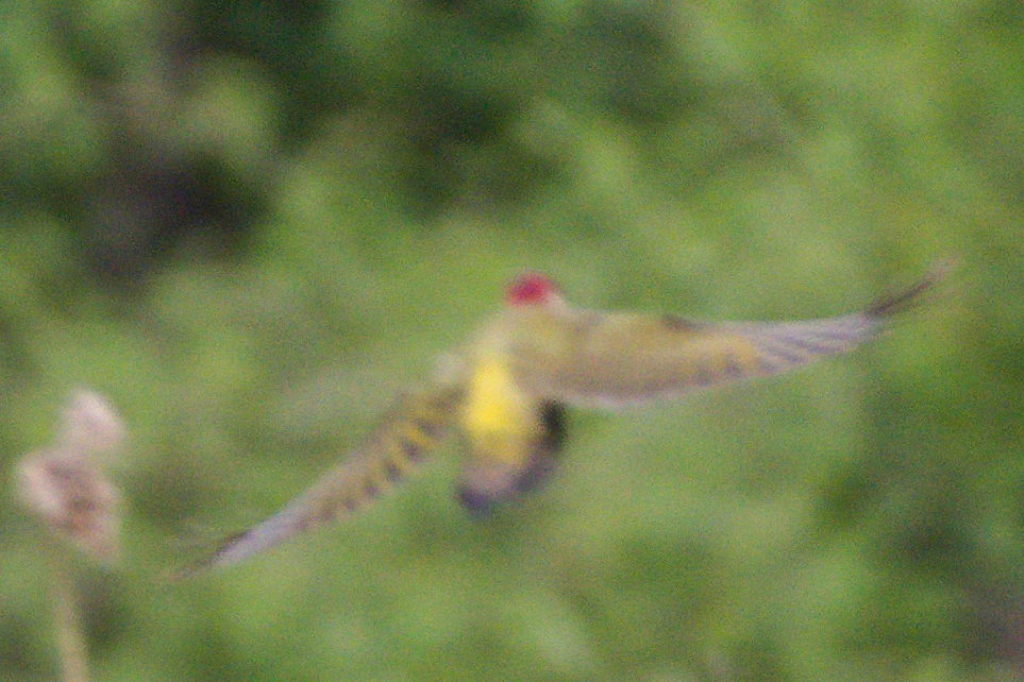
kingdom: Animalia
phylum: Chordata
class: Aves
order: Piciformes
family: Picidae
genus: Picus
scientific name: Picus viridis
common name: European green woodpecker
